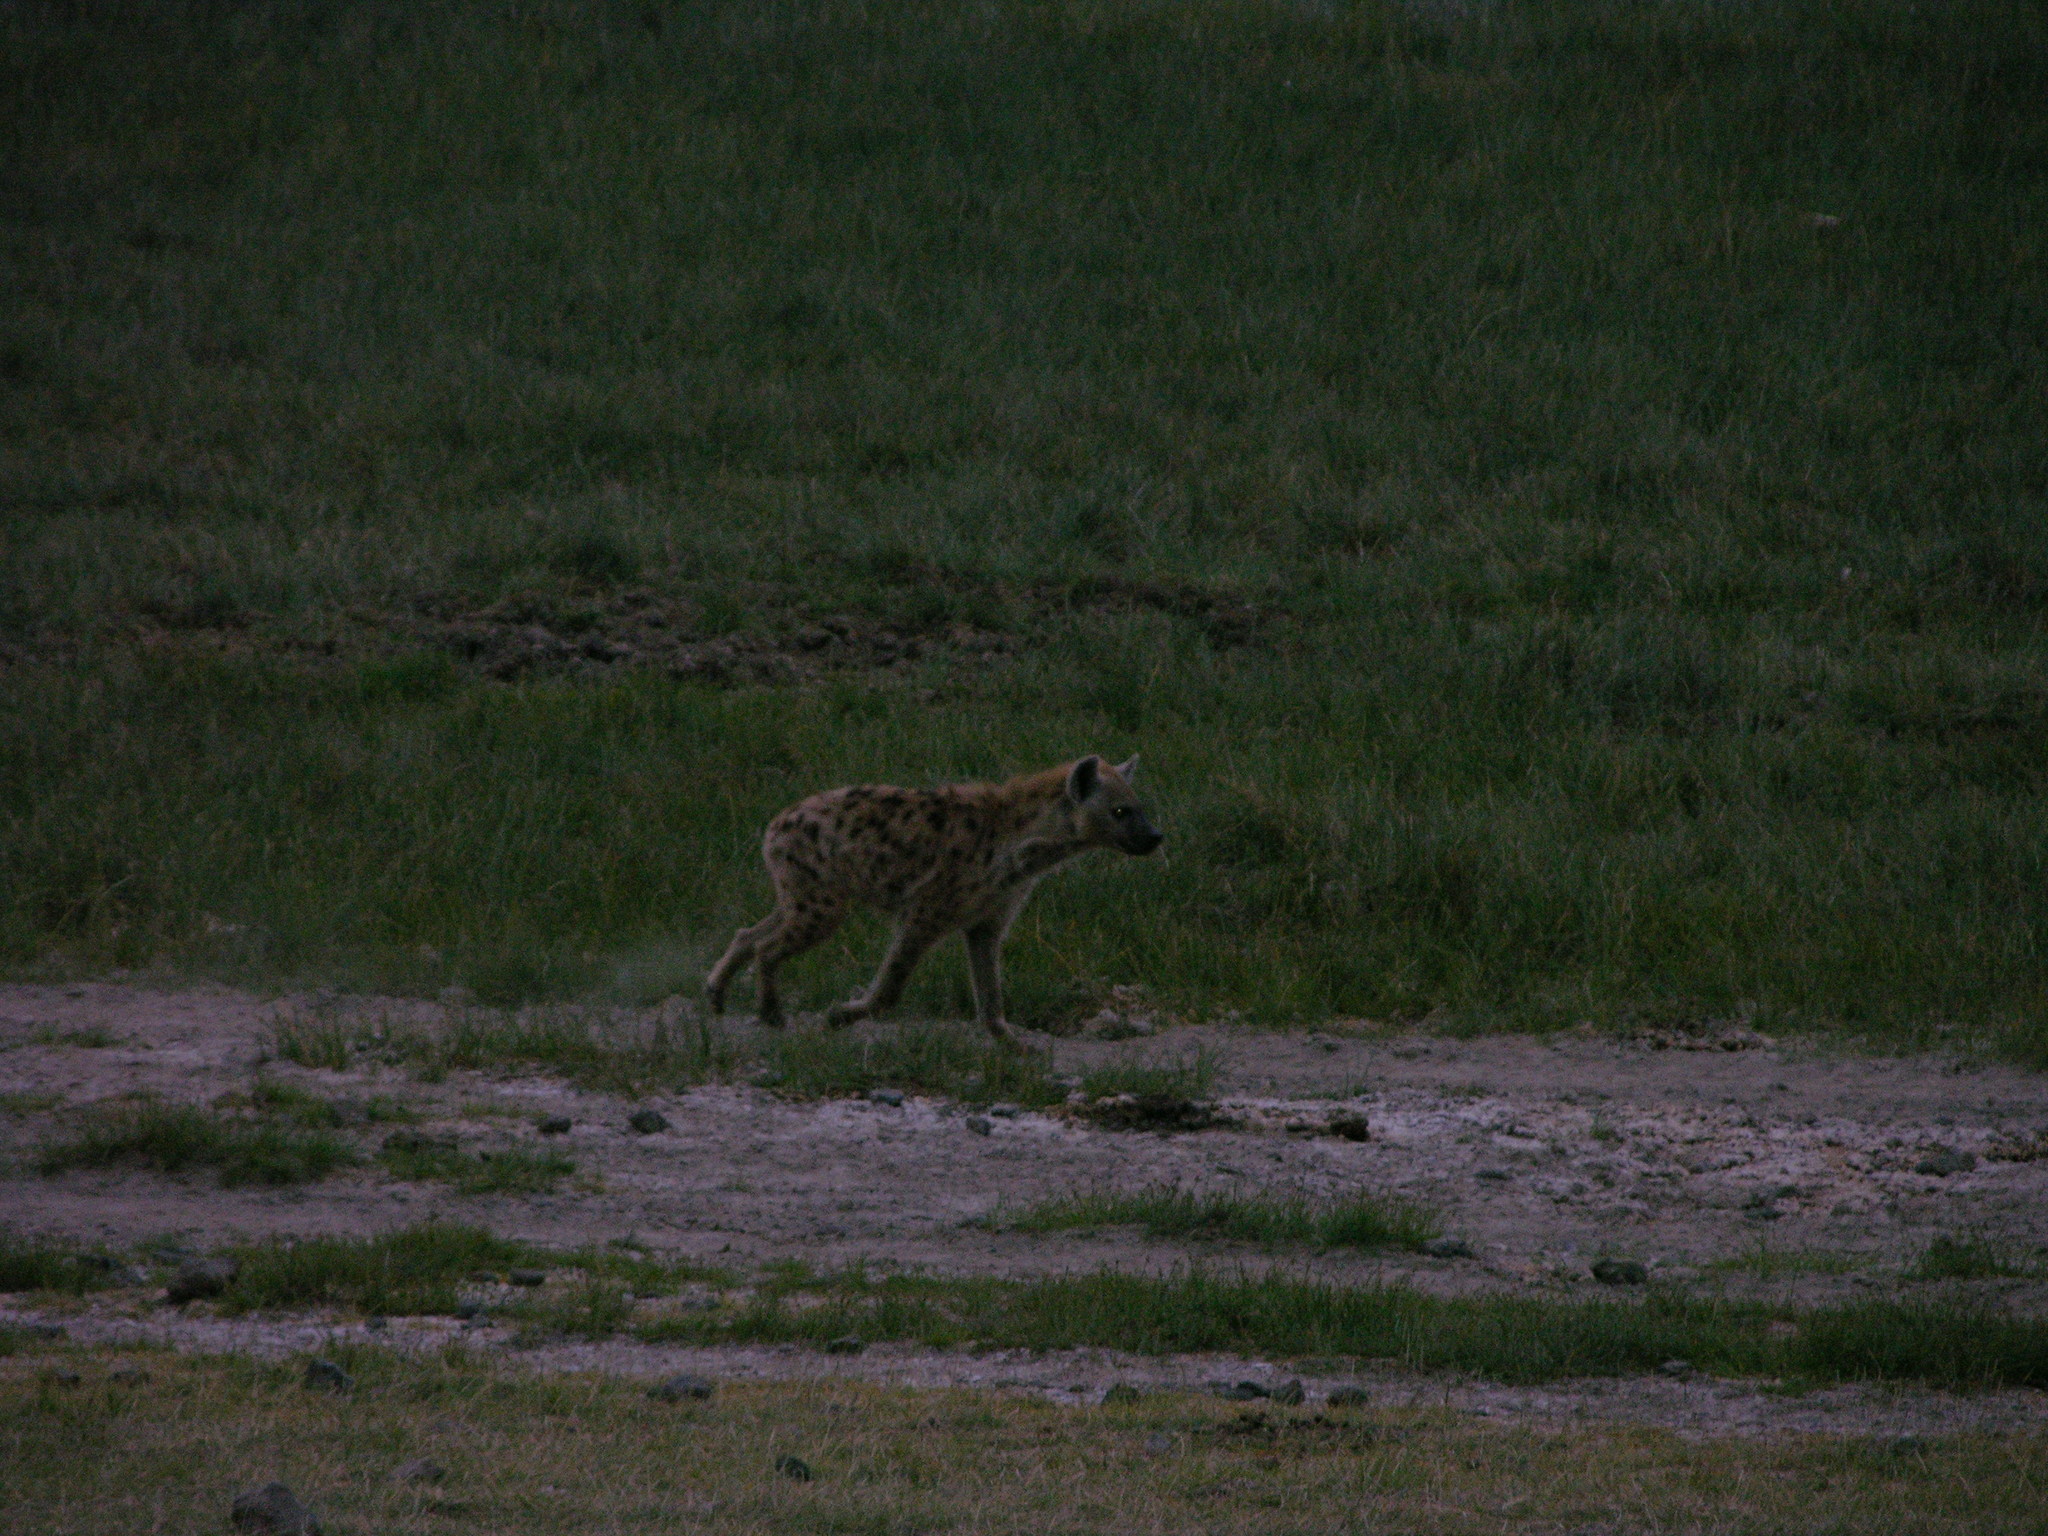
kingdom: Animalia
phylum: Chordata
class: Mammalia
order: Carnivora
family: Hyaenidae
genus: Crocuta
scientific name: Crocuta crocuta
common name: Spotted hyaena
